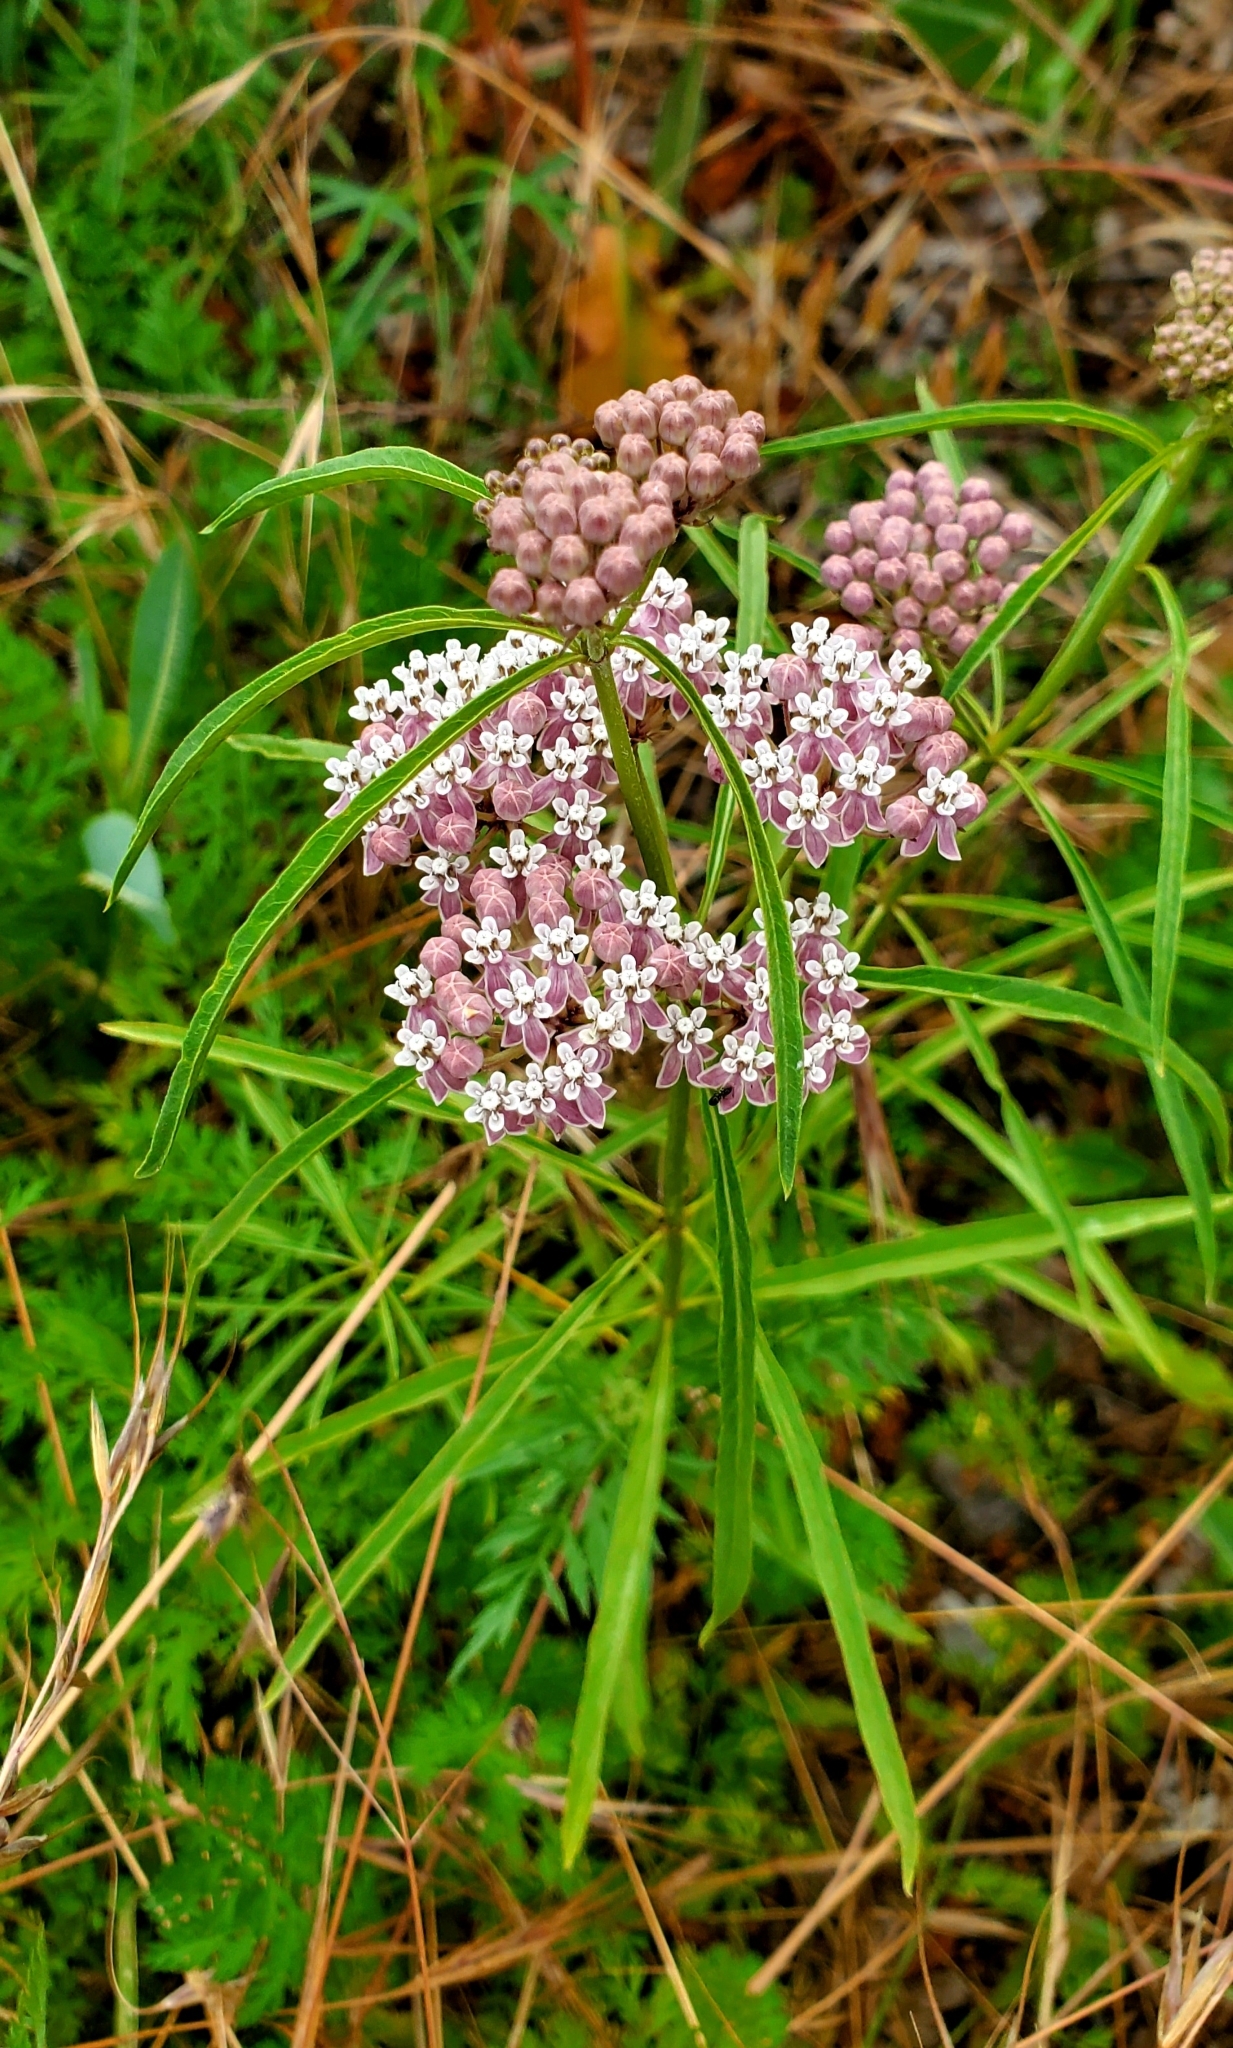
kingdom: Plantae
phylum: Tracheophyta
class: Magnoliopsida
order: Gentianales
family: Apocynaceae
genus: Asclepias
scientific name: Asclepias fascicularis
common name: Mexican milkweed
